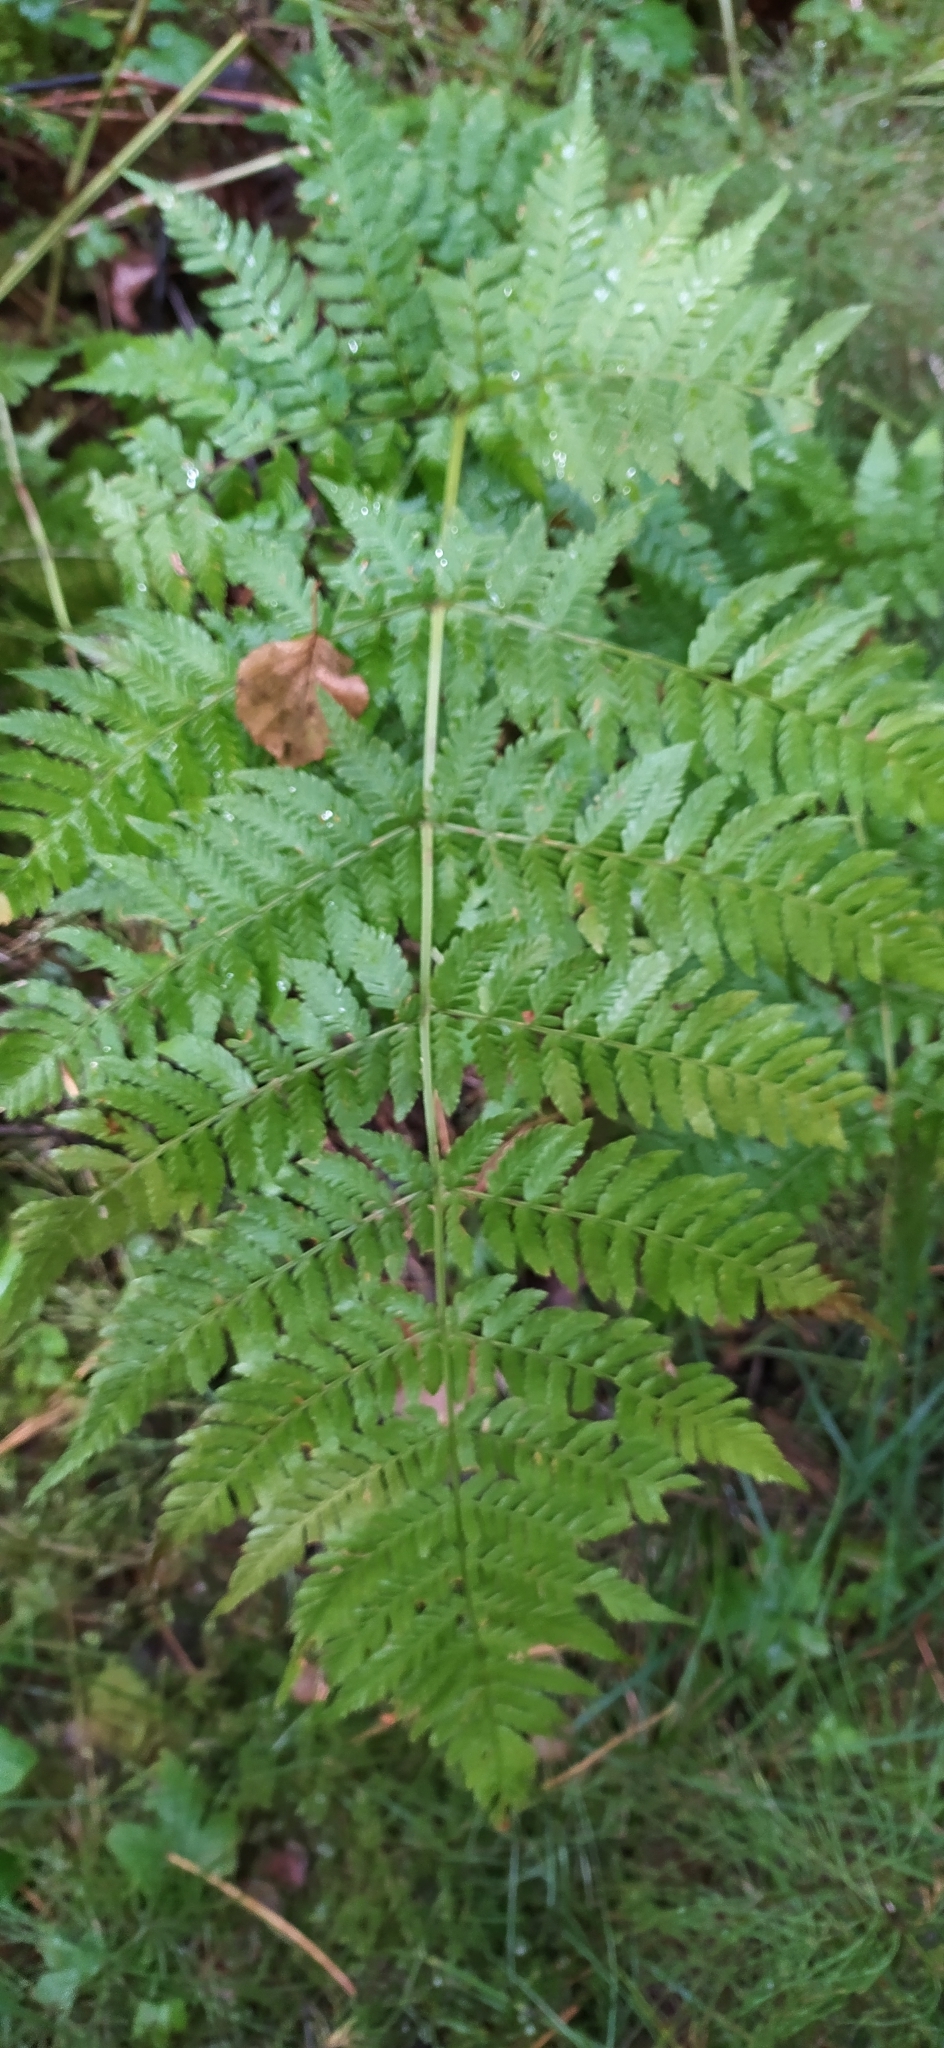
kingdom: Plantae
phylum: Tracheophyta
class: Polypodiopsida
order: Polypodiales
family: Dryopteridaceae
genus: Dryopteris
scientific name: Dryopteris expansa
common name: Northern buckler fern
